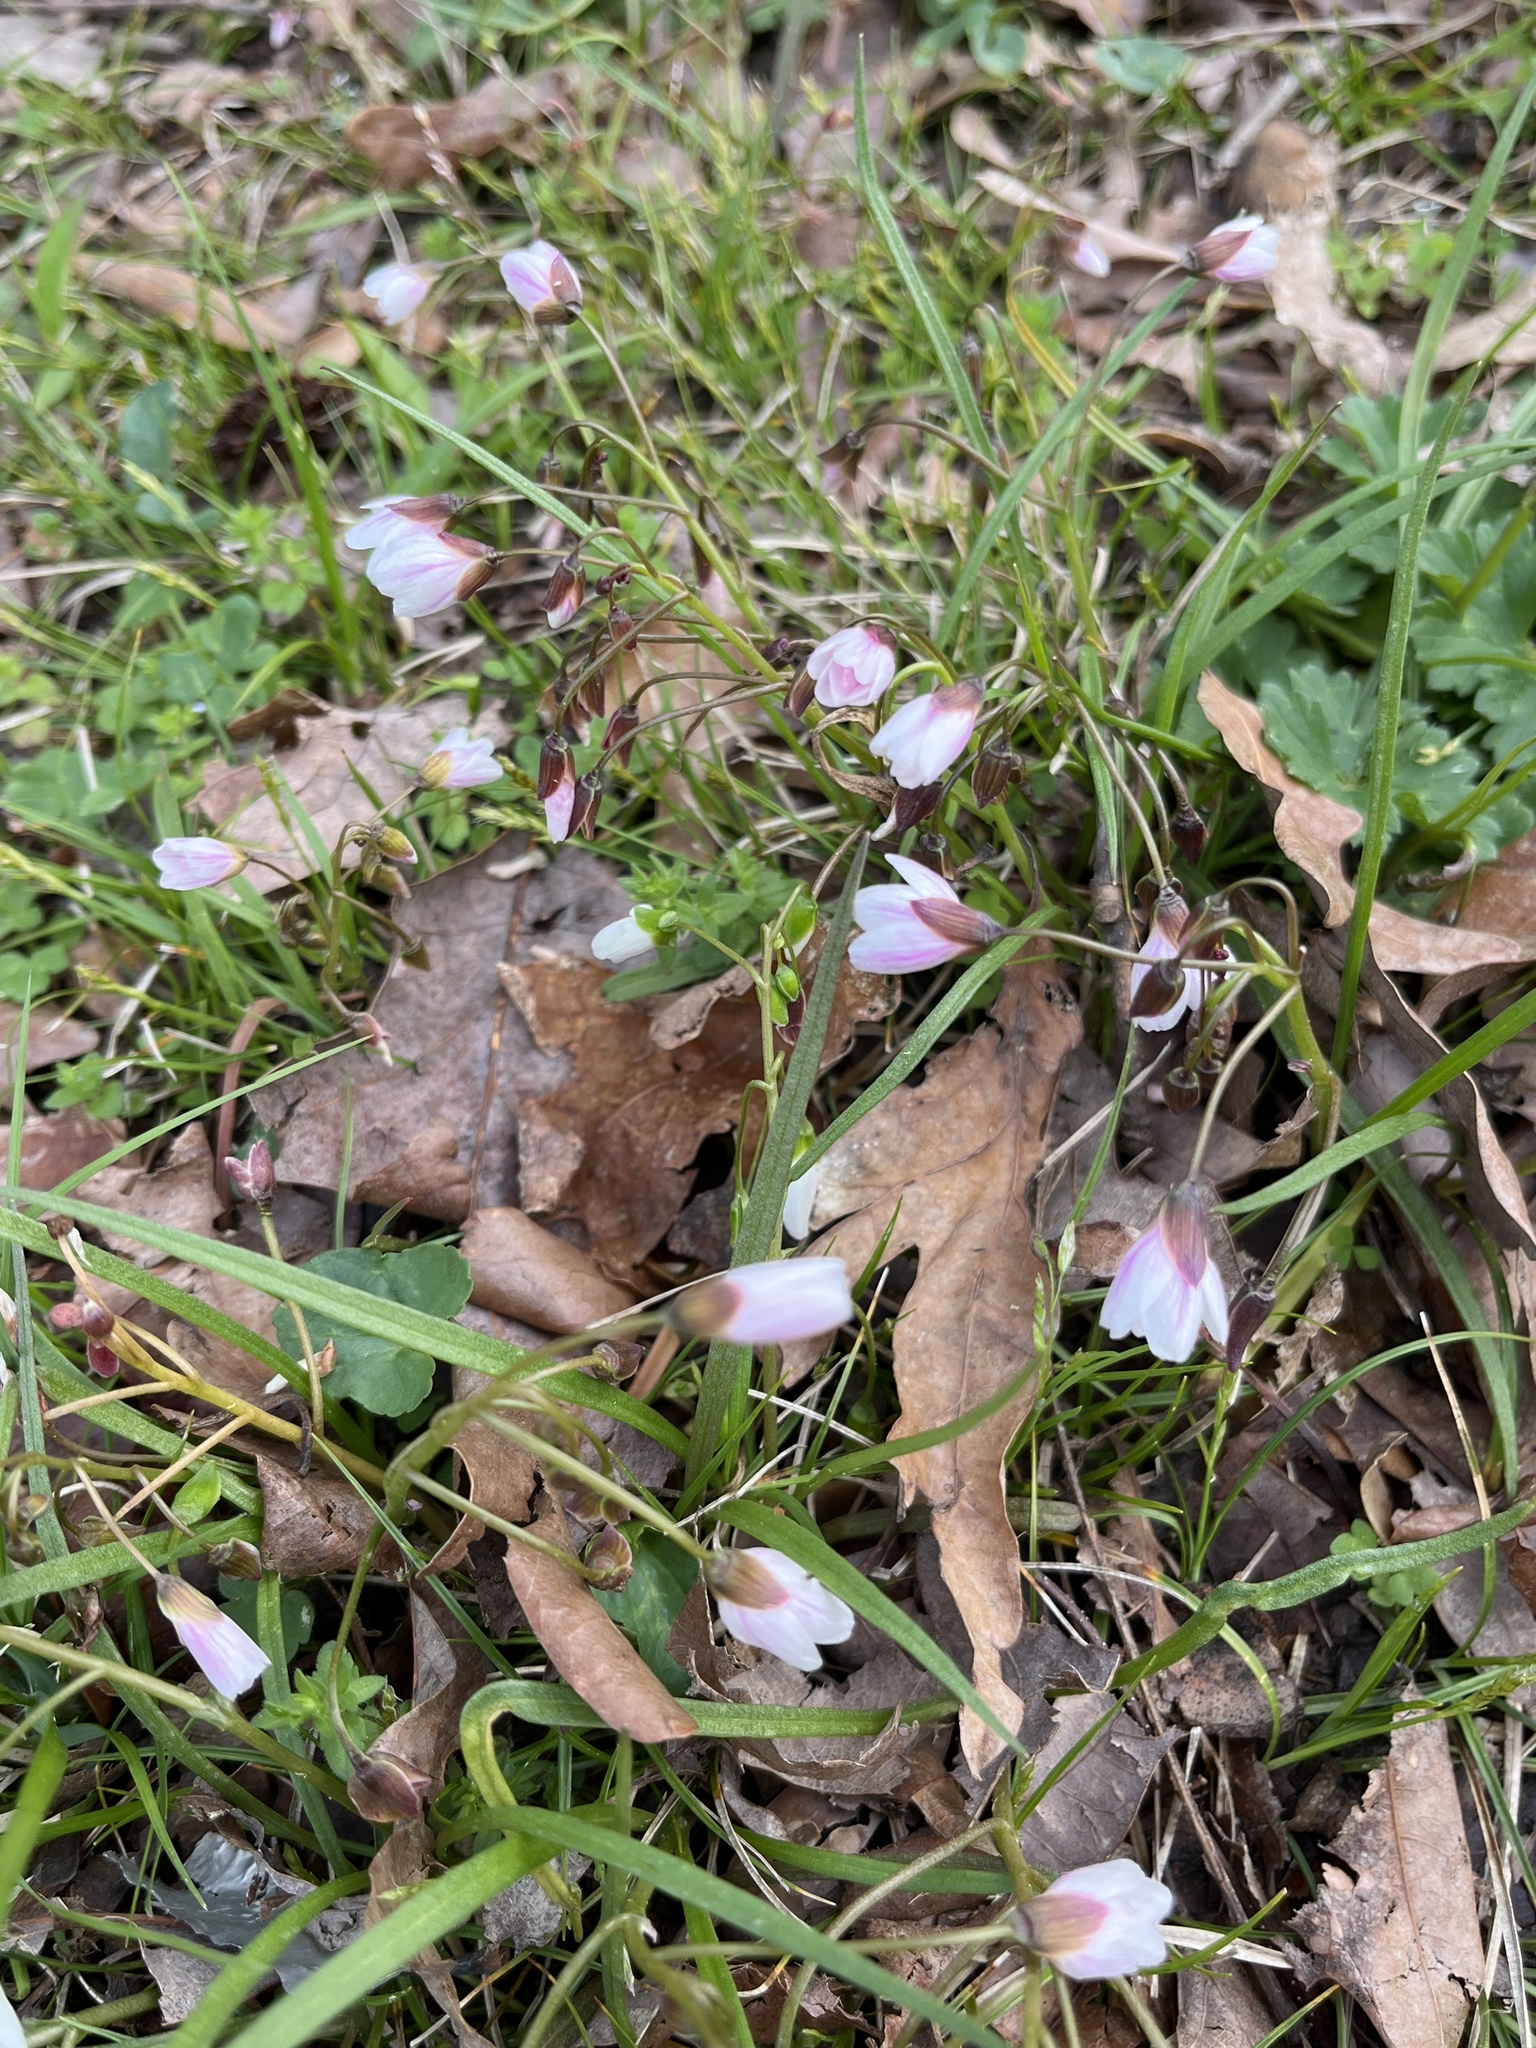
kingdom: Plantae
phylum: Tracheophyta
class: Magnoliopsida
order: Caryophyllales
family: Montiaceae
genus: Claytonia
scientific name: Claytonia virginica
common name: Virginia springbeauty
